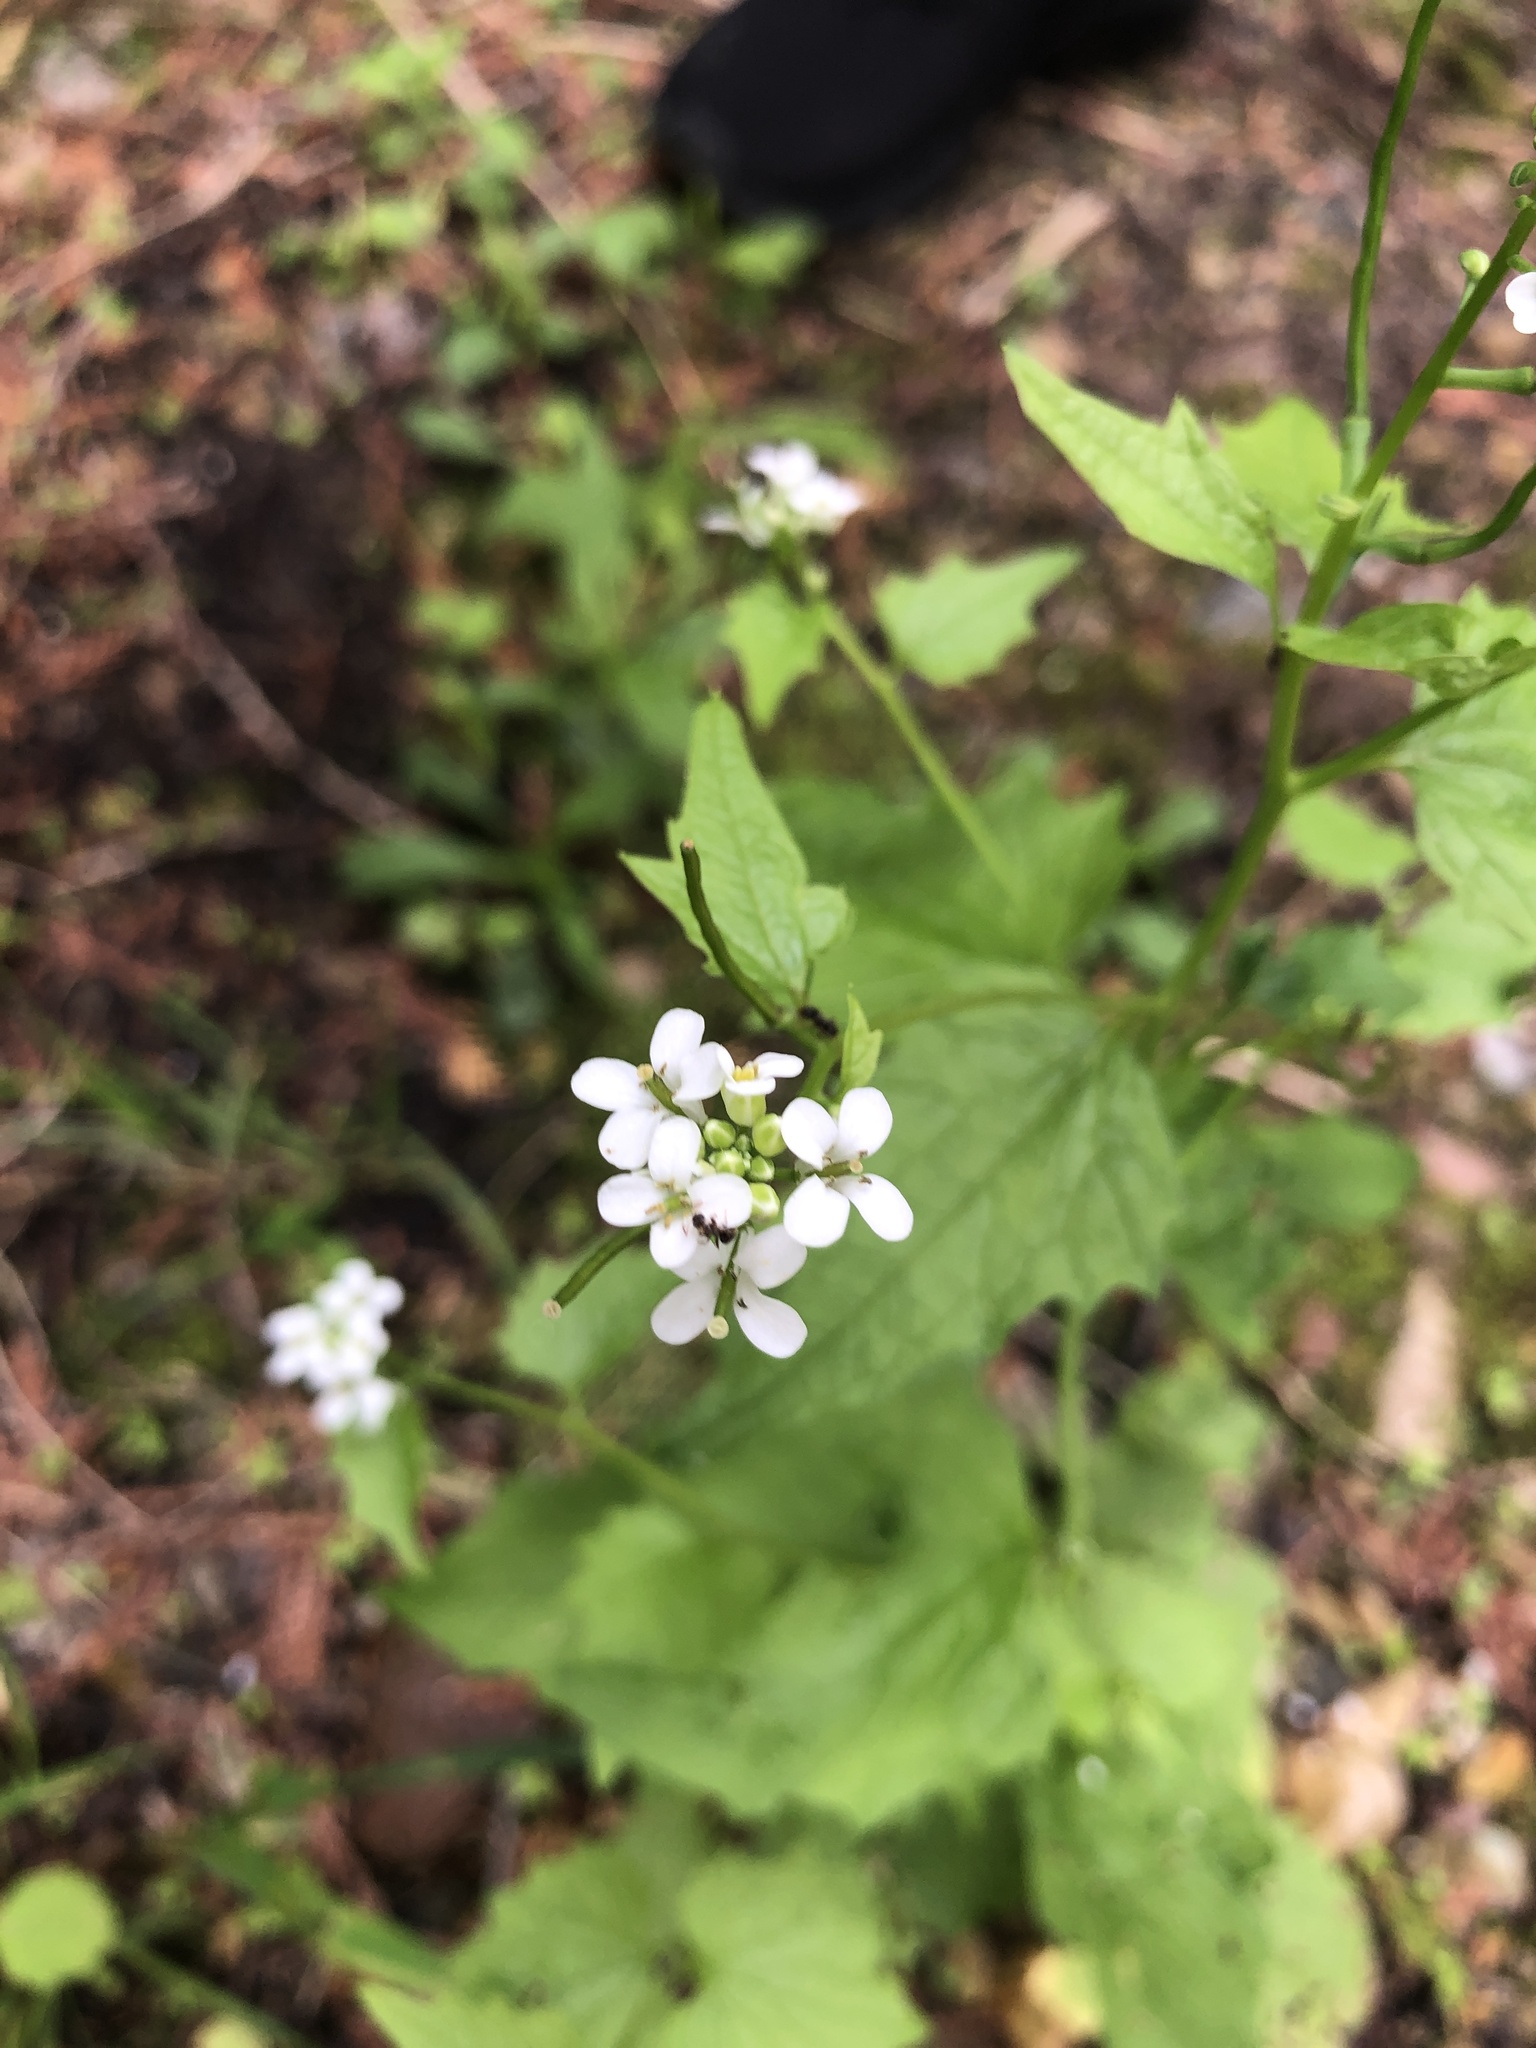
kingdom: Plantae
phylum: Tracheophyta
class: Magnoliopsida
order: Brassicales
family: Brassicaceae
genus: Alliaria
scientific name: Alliaria petiolata
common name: Garlic mustard
